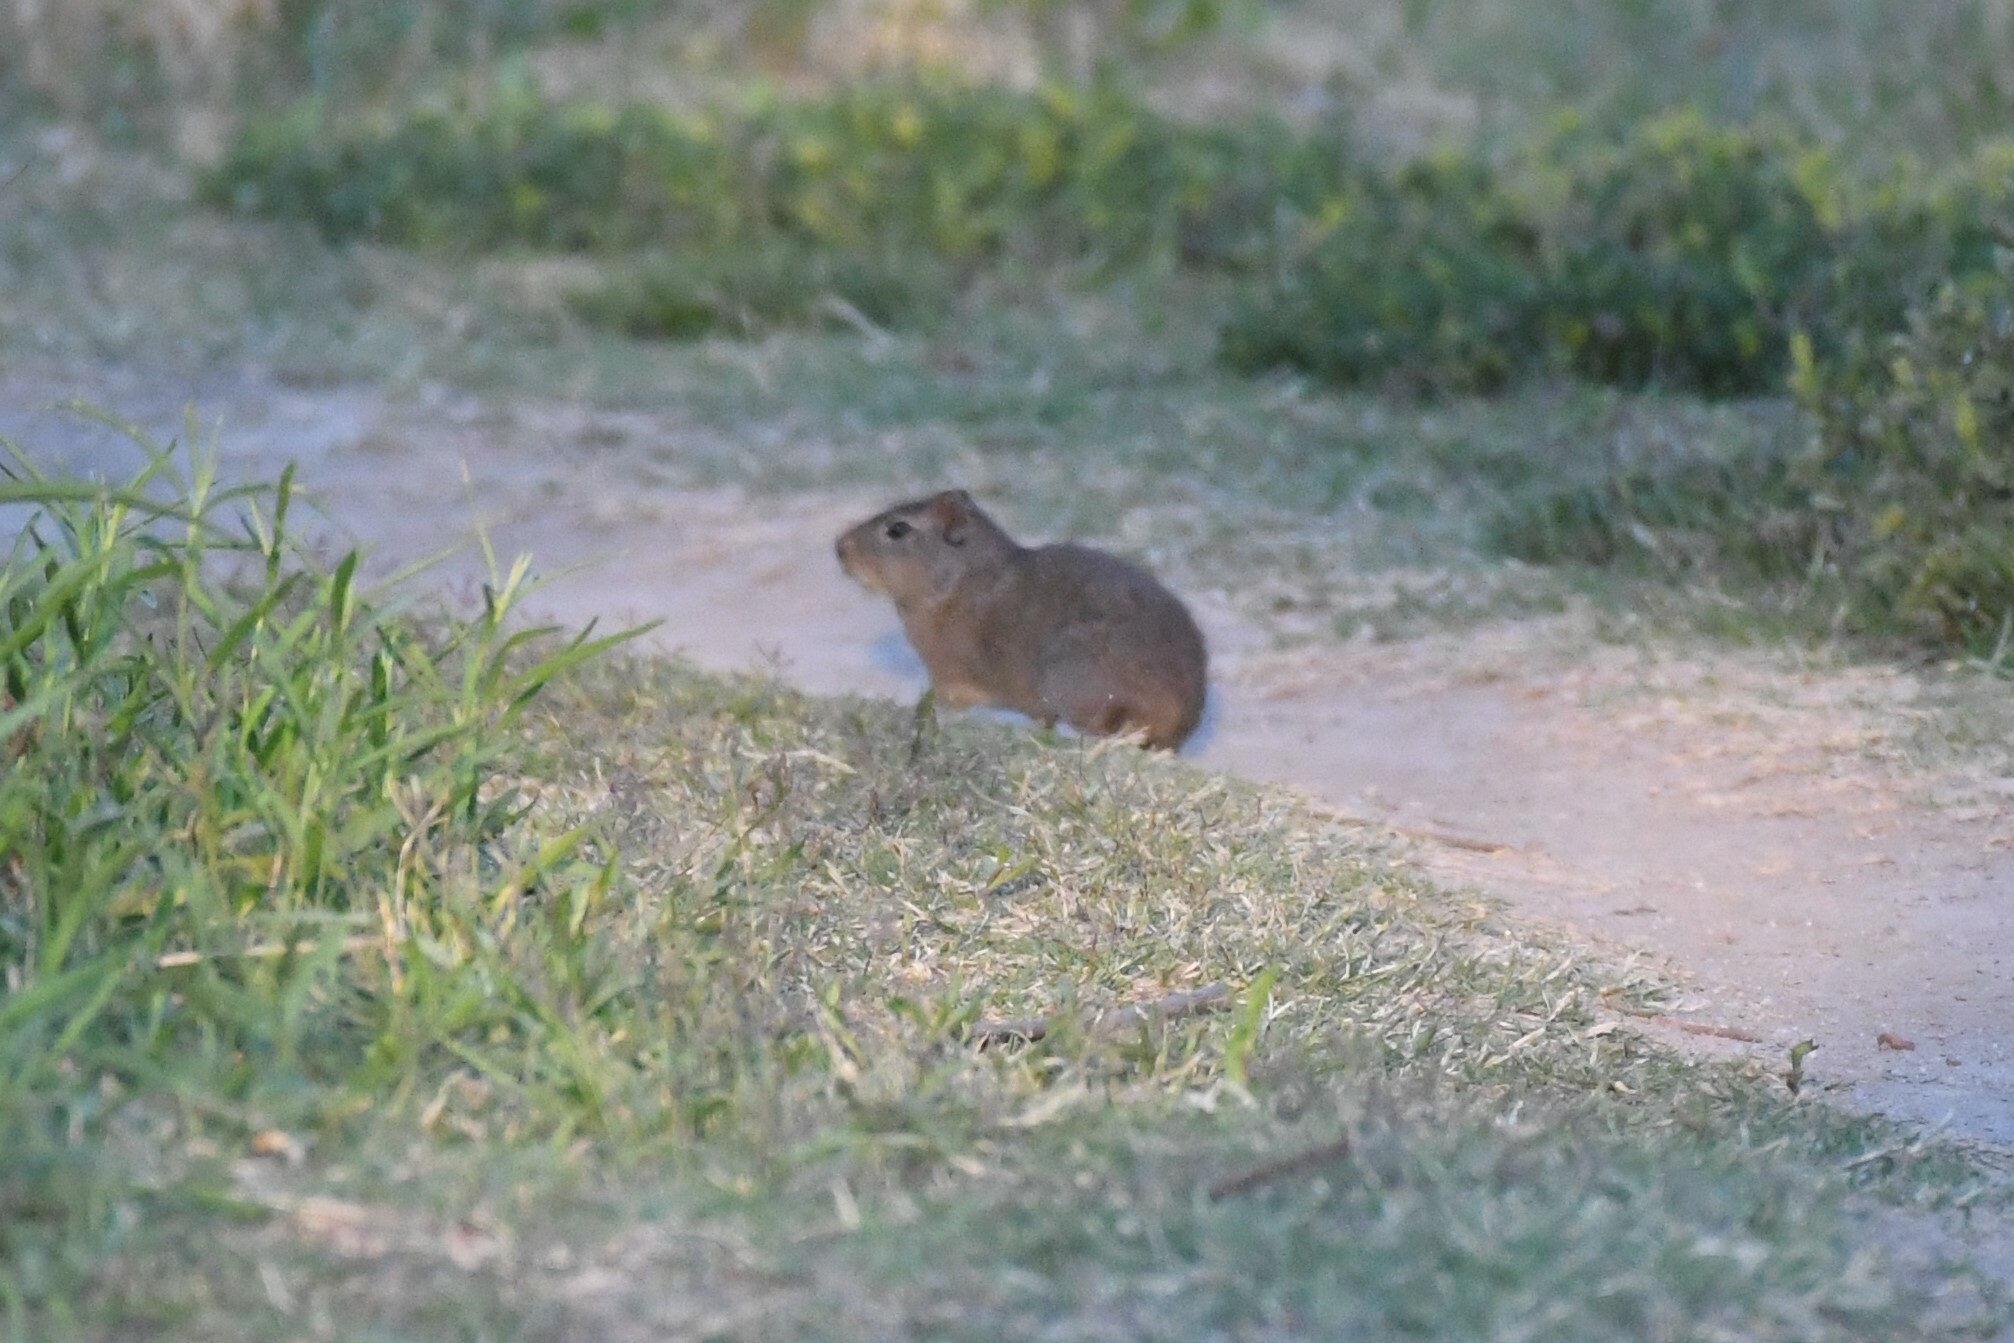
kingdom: Animalia
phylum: Chordata
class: Mammalia
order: Rodentia
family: Caviidae
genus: Cavia
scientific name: Cavia aperea
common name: Brazilian guinea pig
